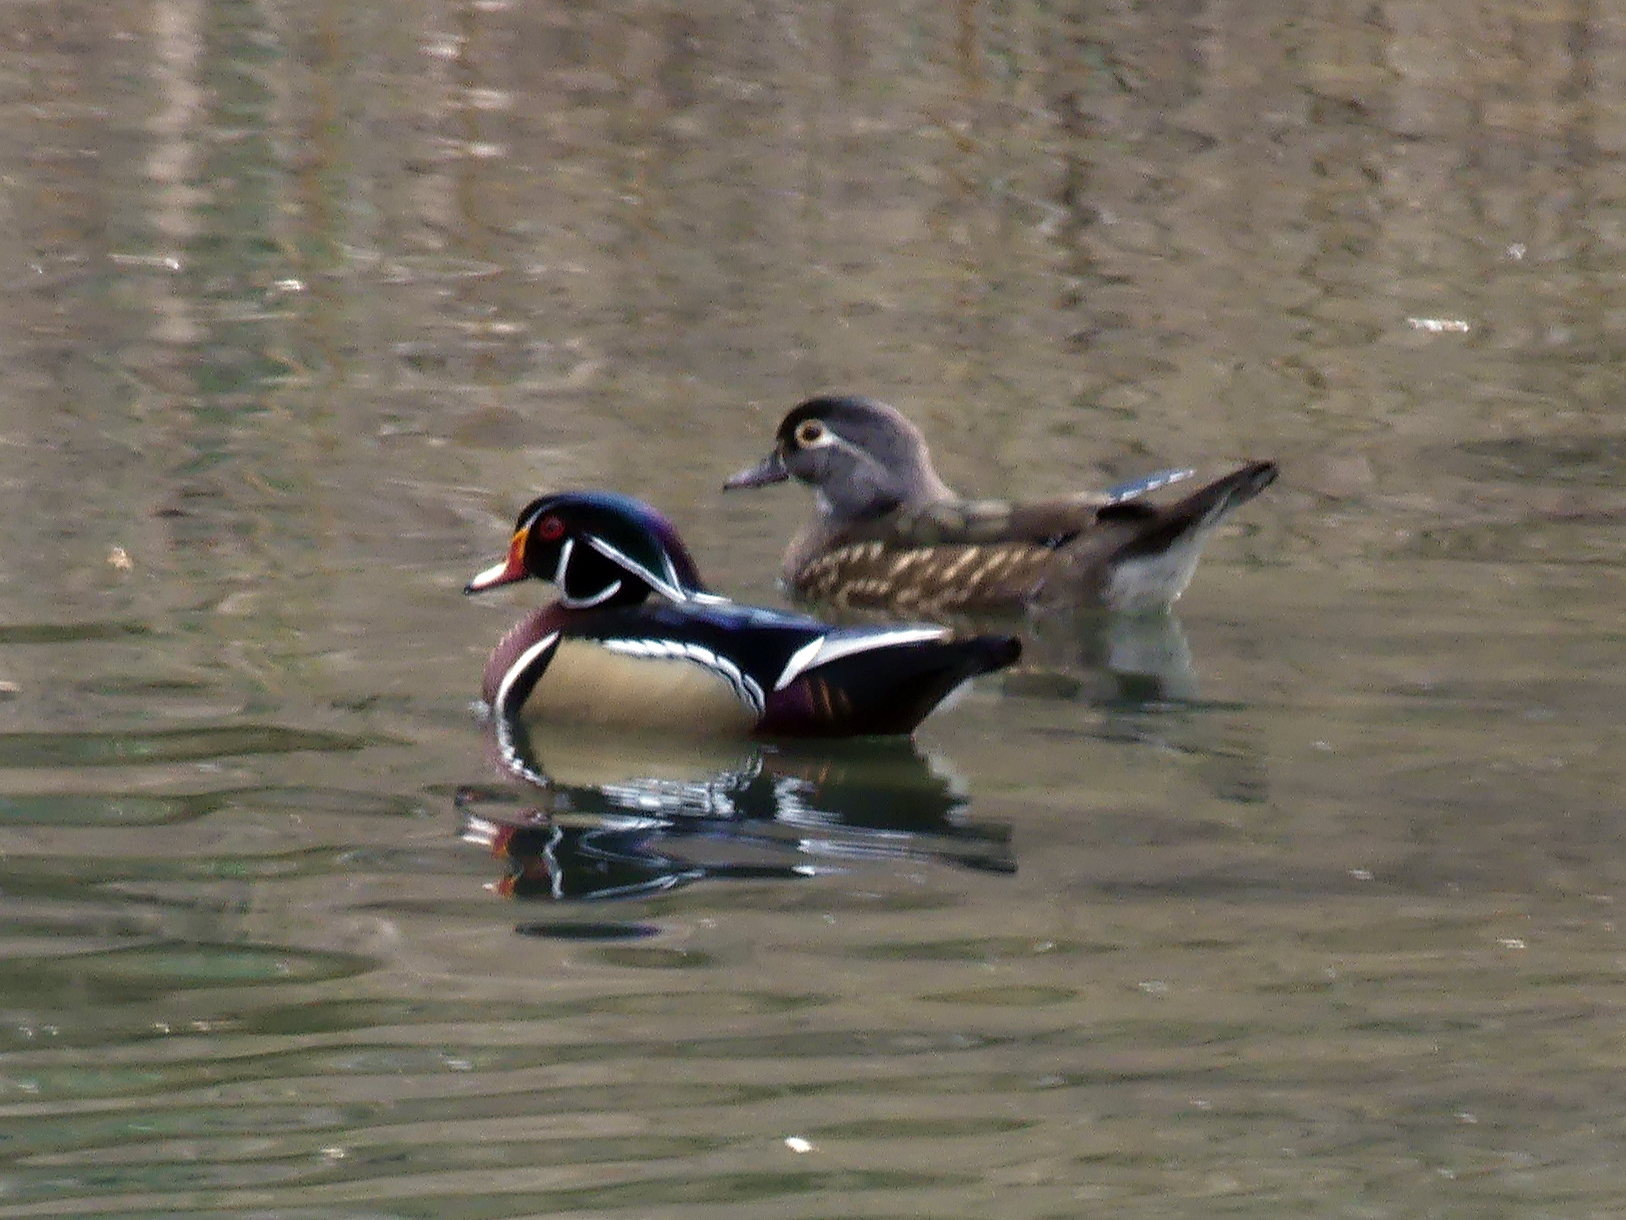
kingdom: Animalia
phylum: Chordata
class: Aves
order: Anseriformes
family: Anatidae
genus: Aix
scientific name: Aix sponsa
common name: Wood duck
